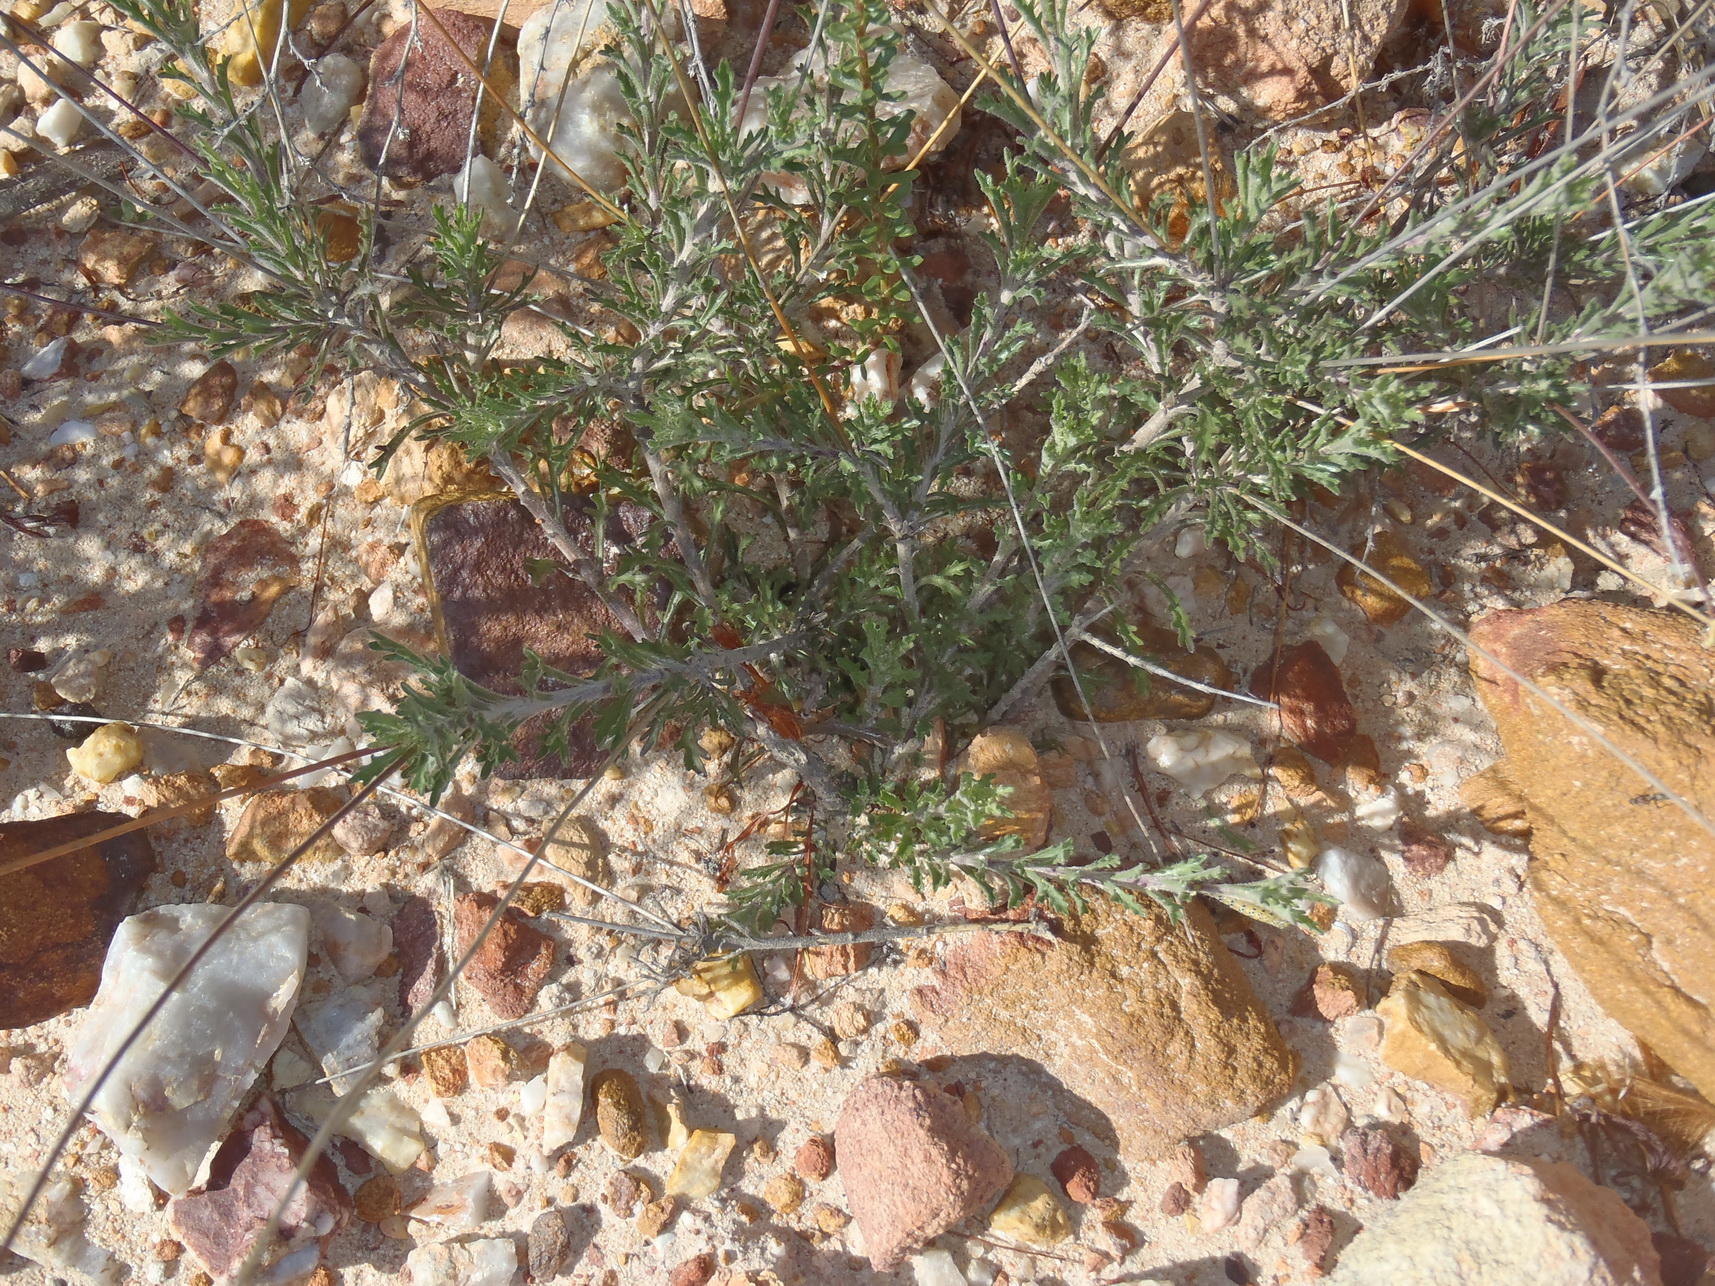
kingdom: Plantae
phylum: Tracheophyta
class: Magnoliopsida
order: Asterales
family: Campanulaceae
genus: Lobelia
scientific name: Lobelia tomentosa
